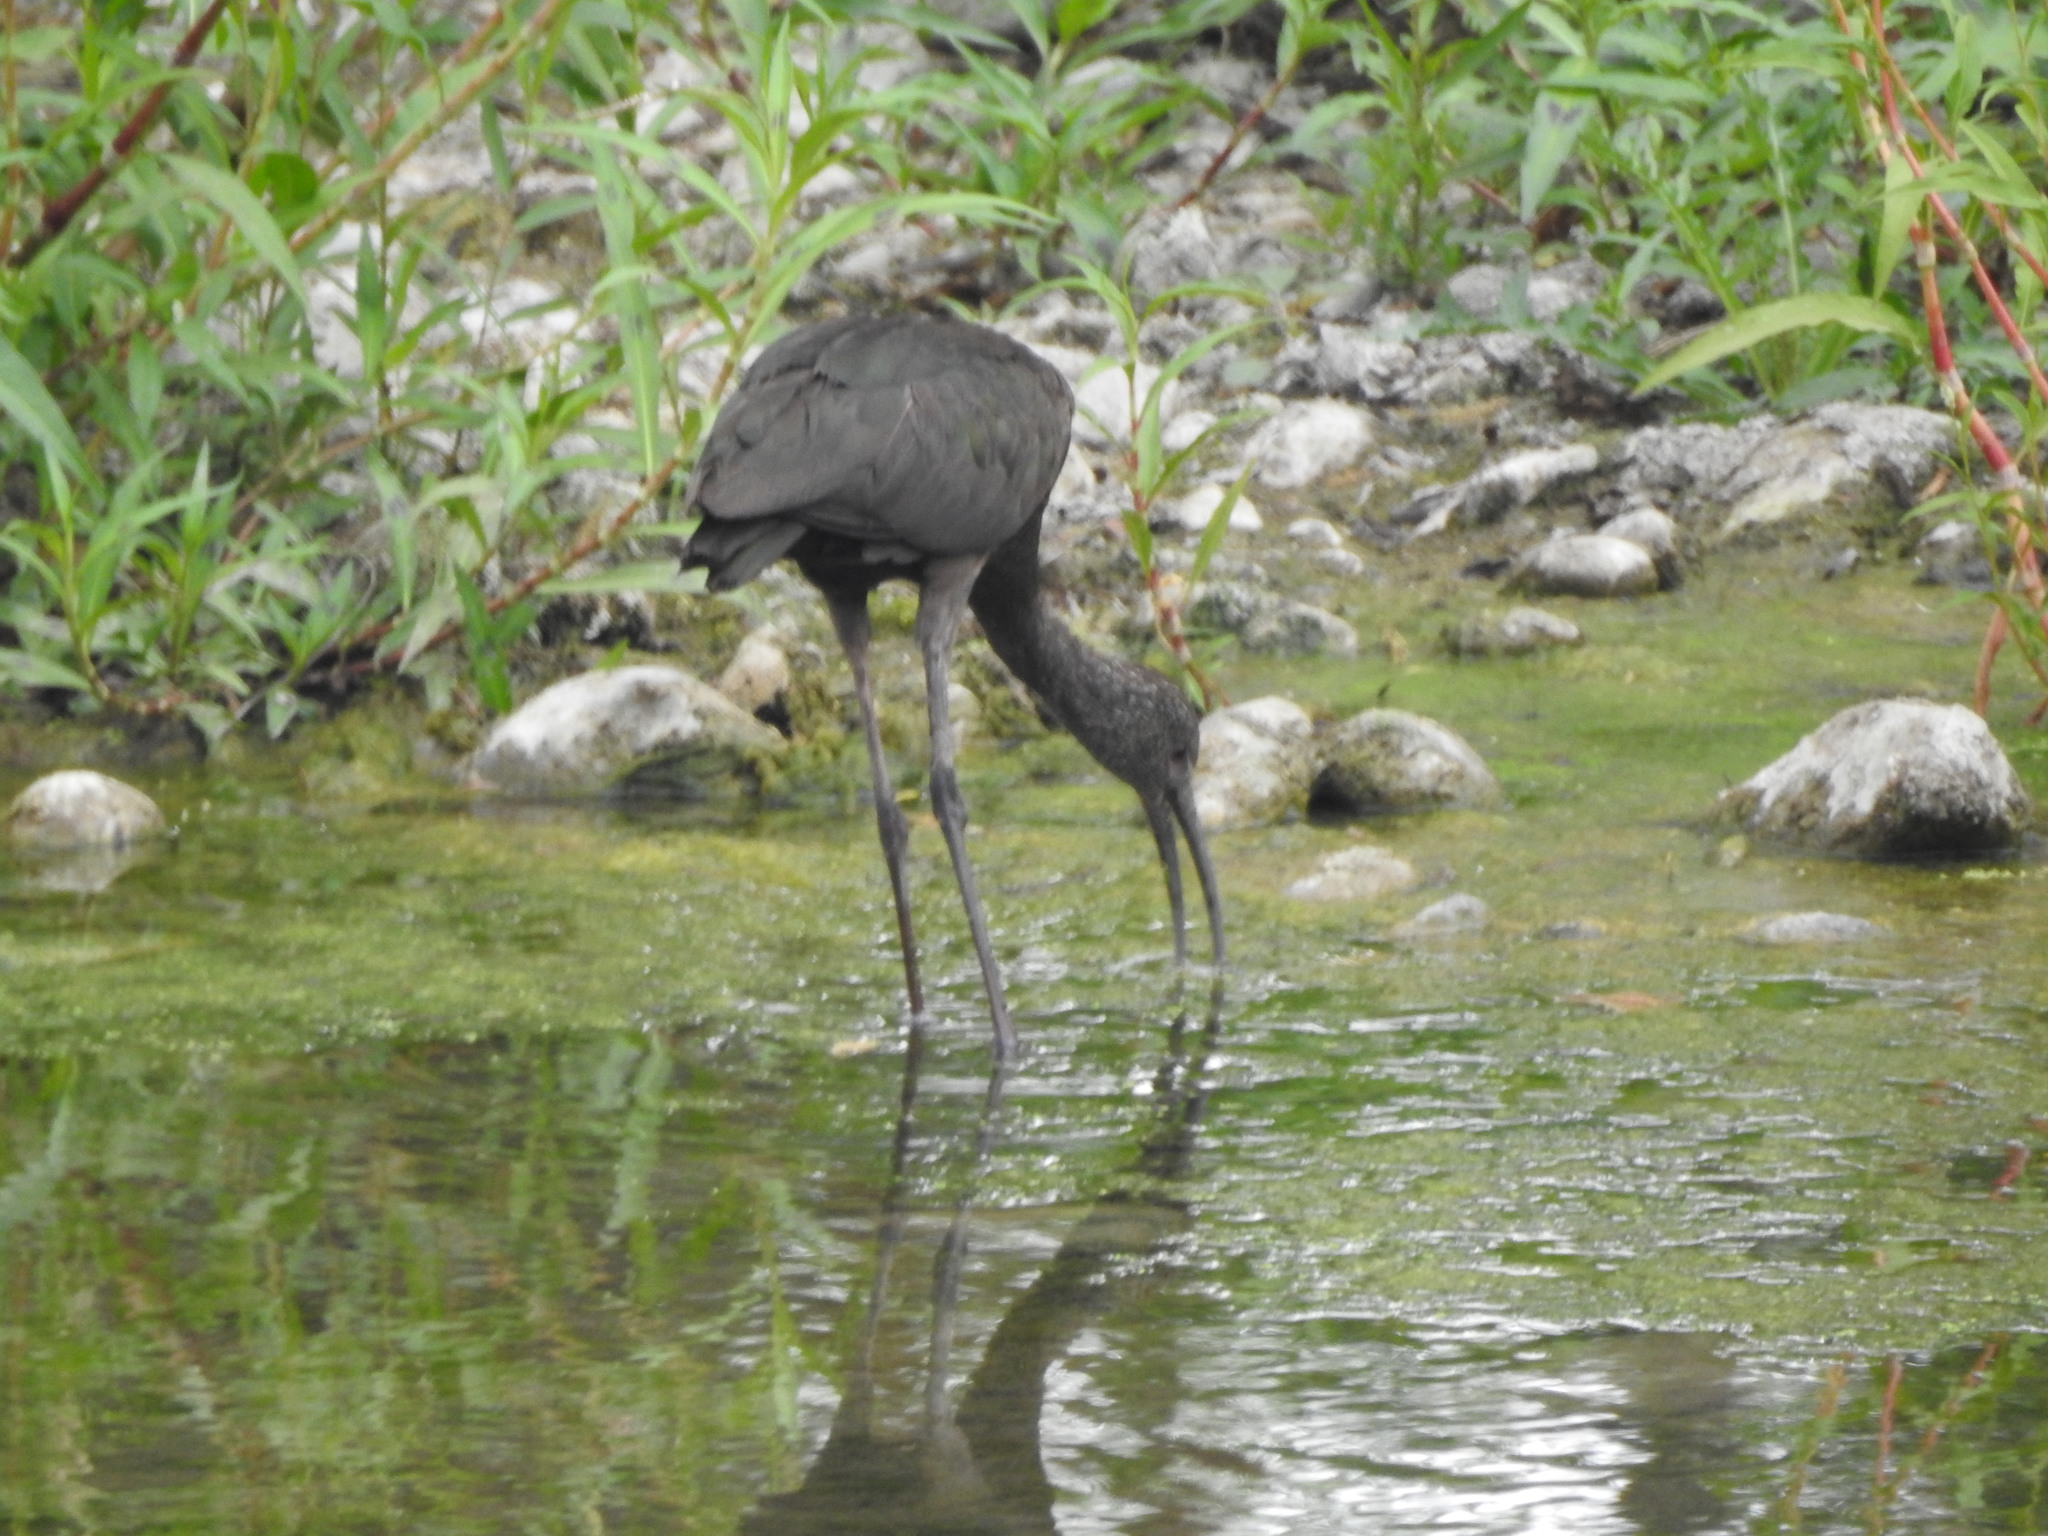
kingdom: Animalia
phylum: Chordata
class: Aves
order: Pelecaniformes
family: Threskiornithidae
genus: Plegadis
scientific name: Plegadis chihi
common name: White-faced ibis
